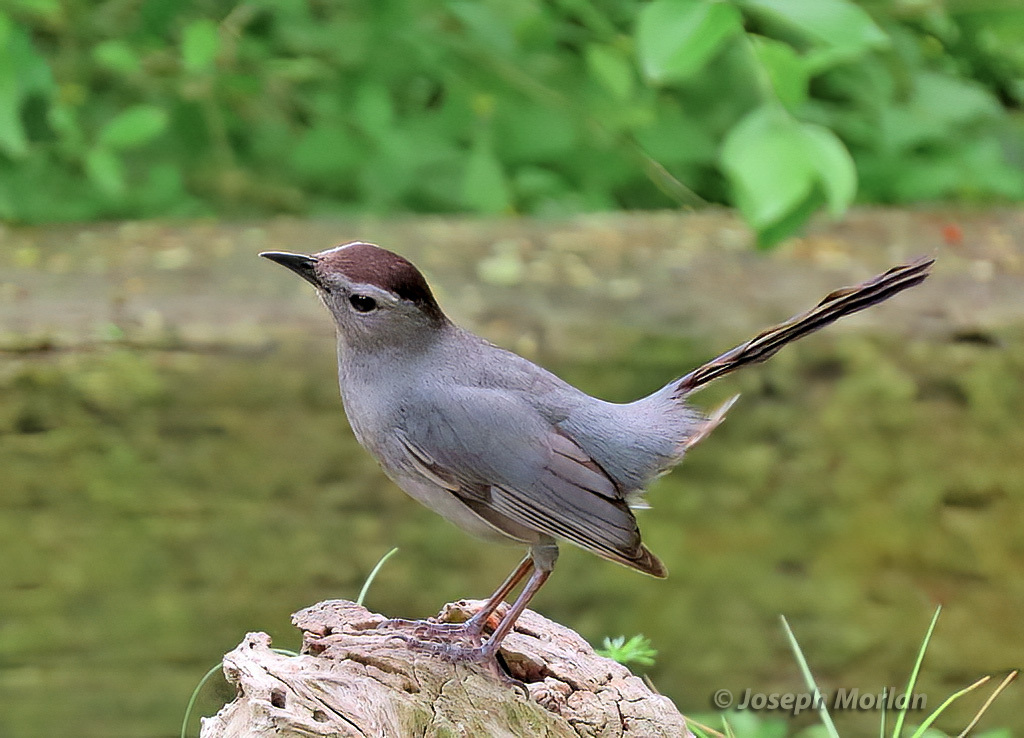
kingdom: Animalia
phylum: Chordata
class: Aves
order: Passeriformes
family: Mimidae
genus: Dumetella
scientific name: Dumetella carolinensis
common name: Gray catbird
